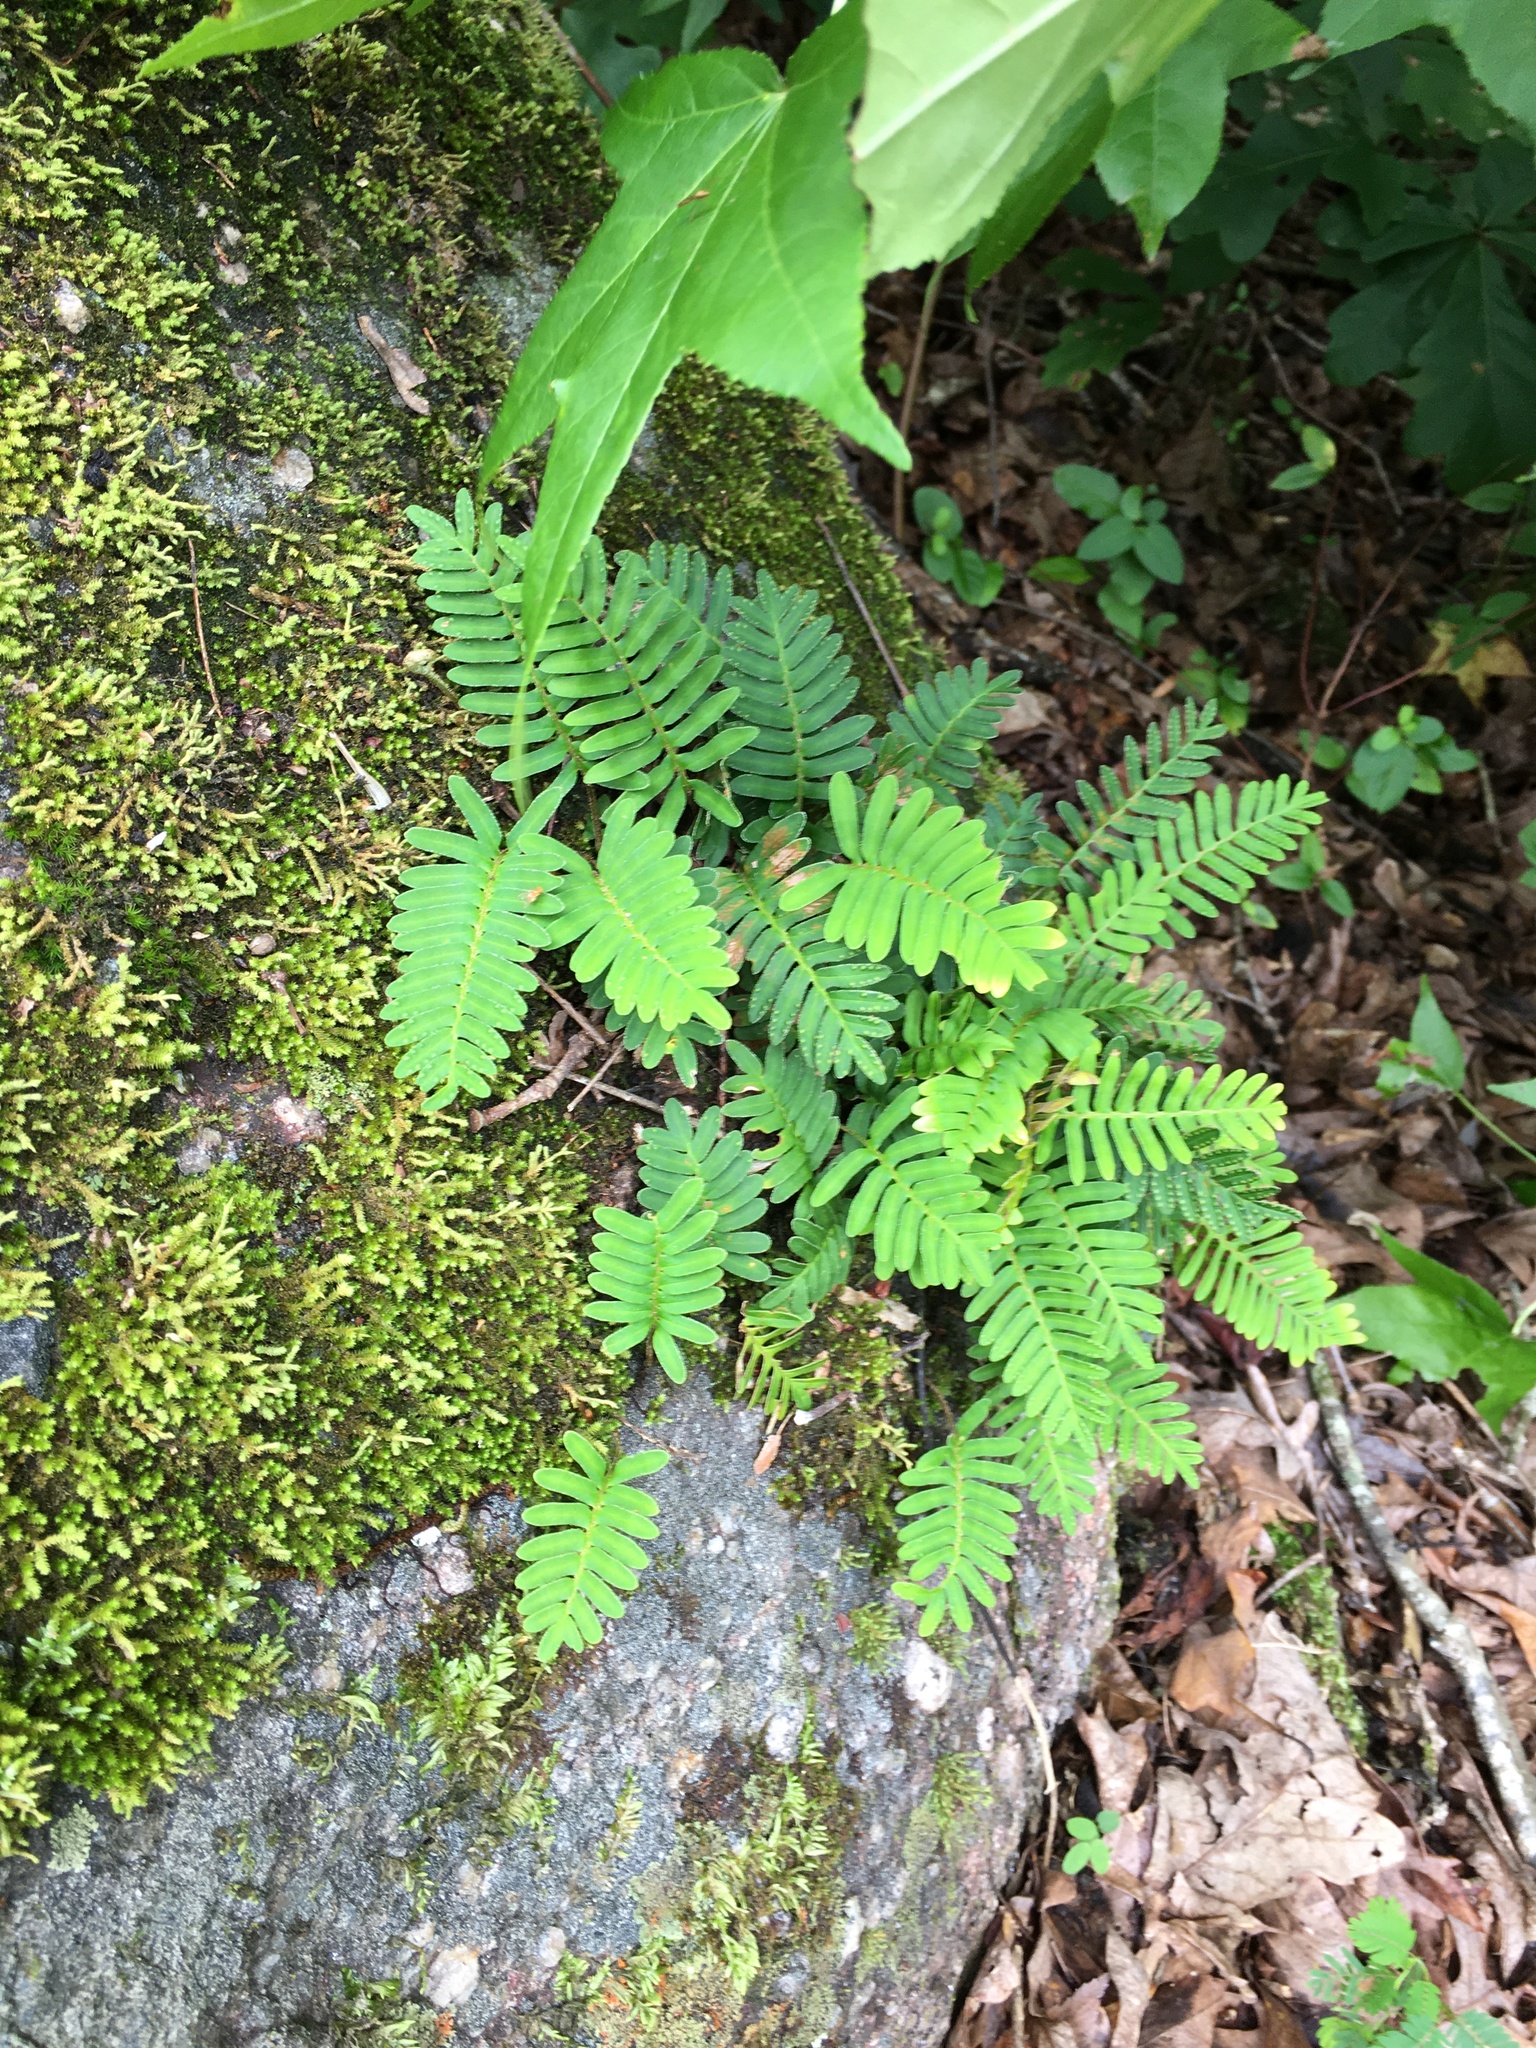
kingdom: Plantae
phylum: Tracheophyta
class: Polypodiopsida
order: Polypodiales
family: Polypodiaceae
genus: Pleopeltis
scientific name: Pleopeltis michauxiana
